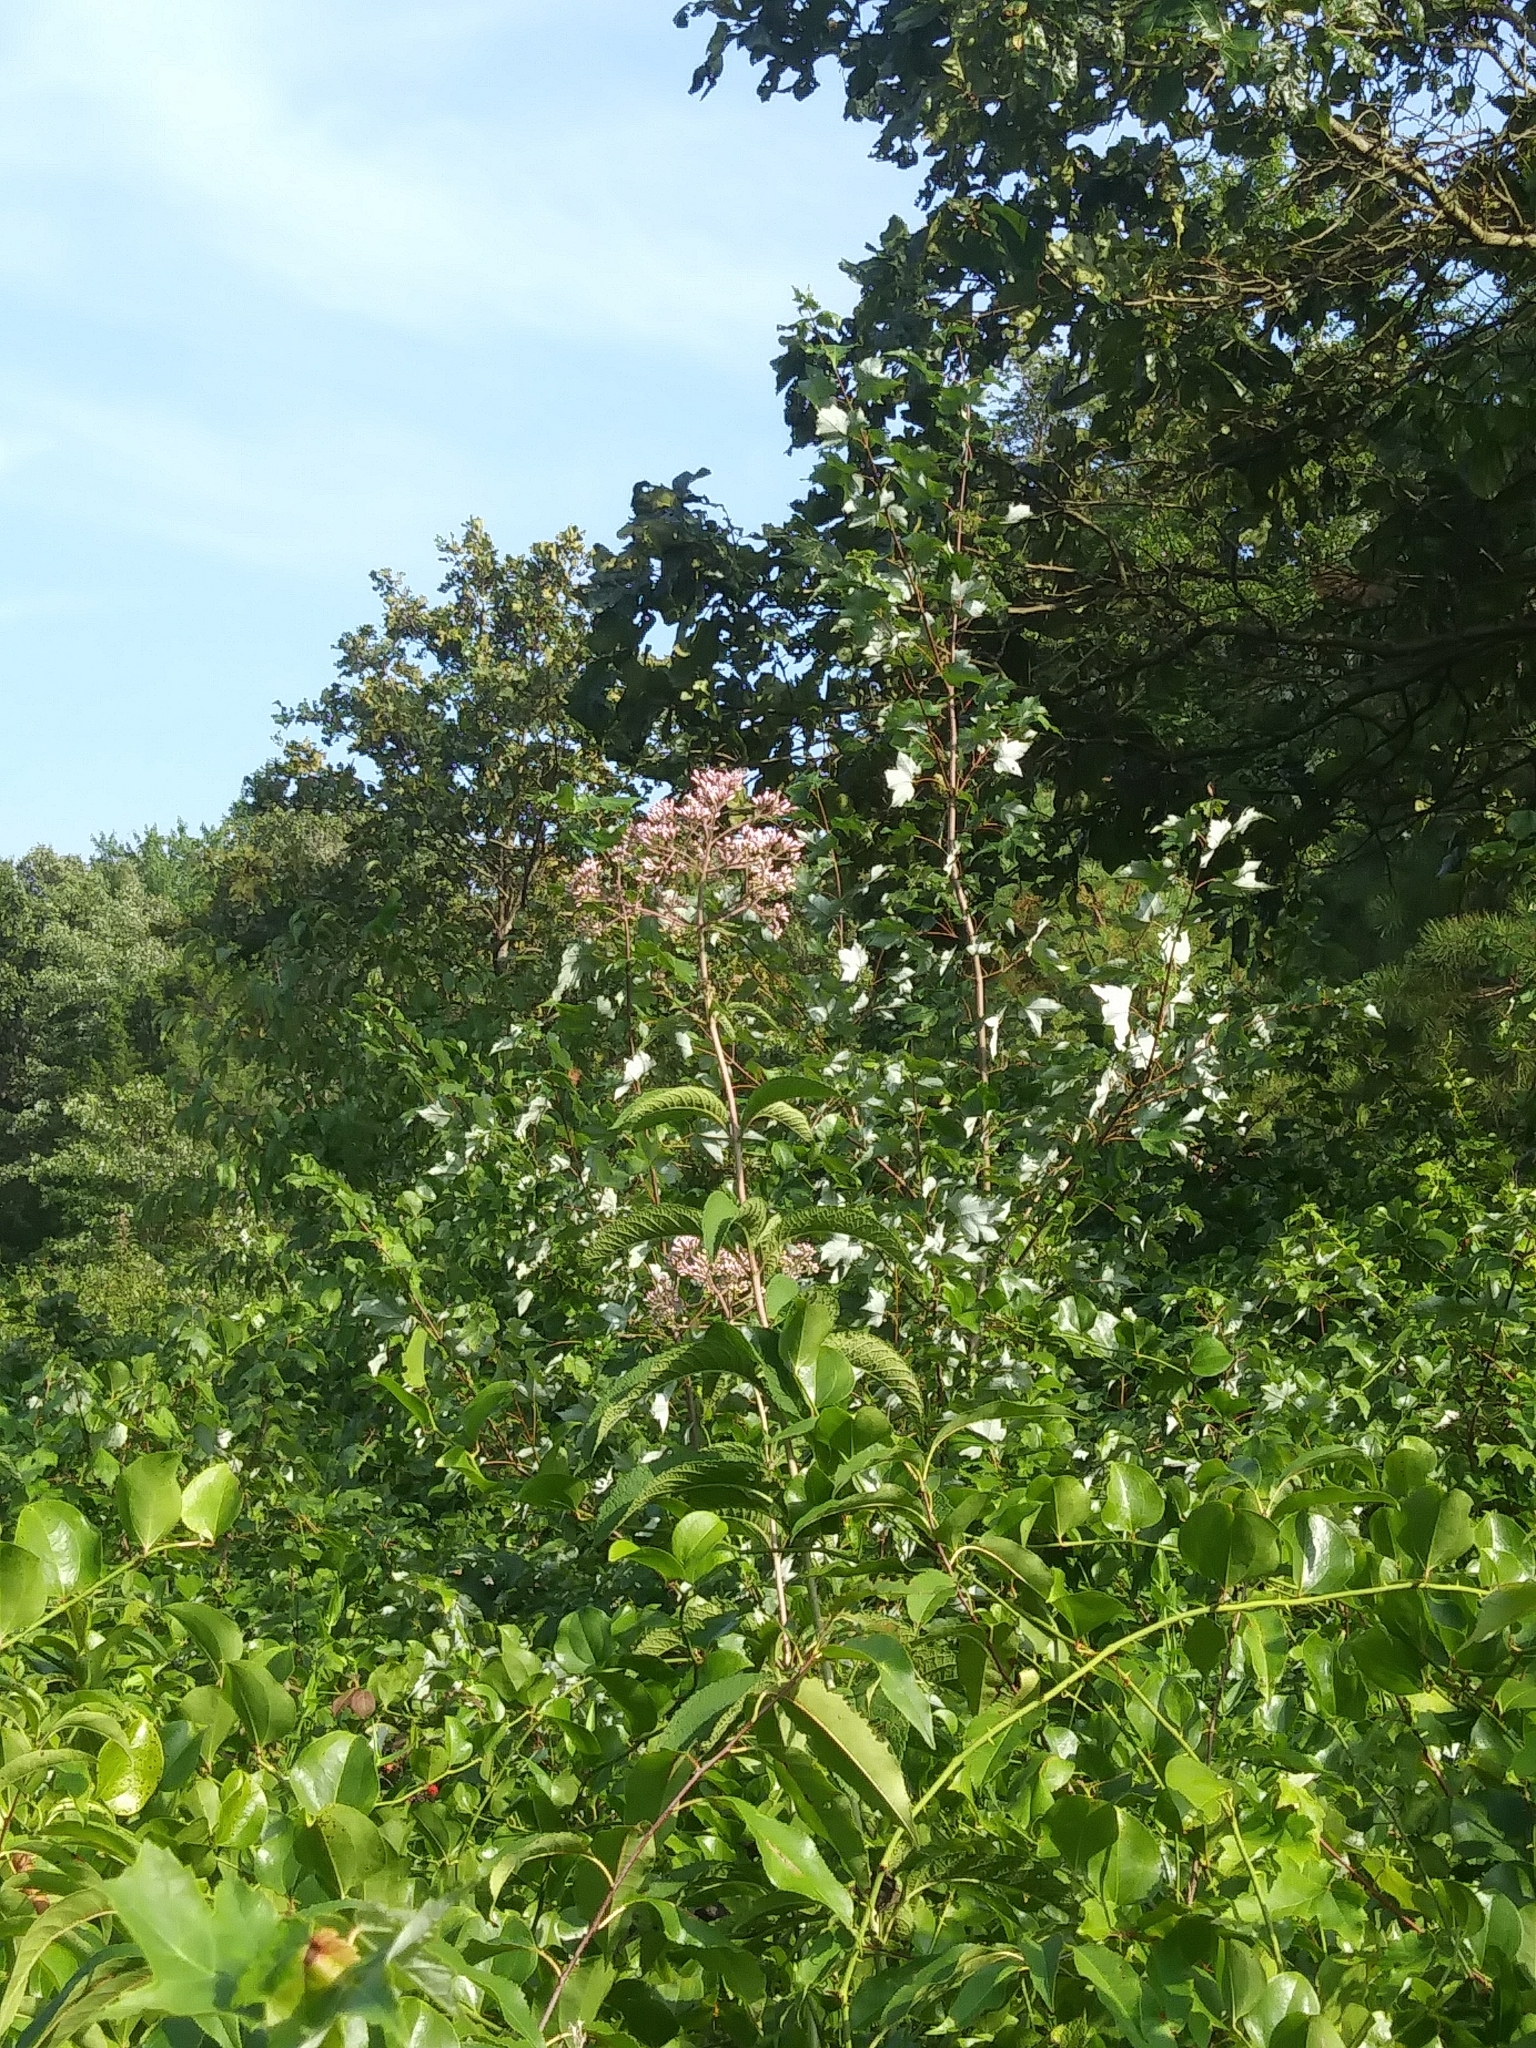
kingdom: Plantae
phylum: Tracheophyta
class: Magnoliopsida
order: Asterales
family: Asteraceae
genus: Eutrochium
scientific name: Eutrochium fistulosum
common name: Trumpetweed
